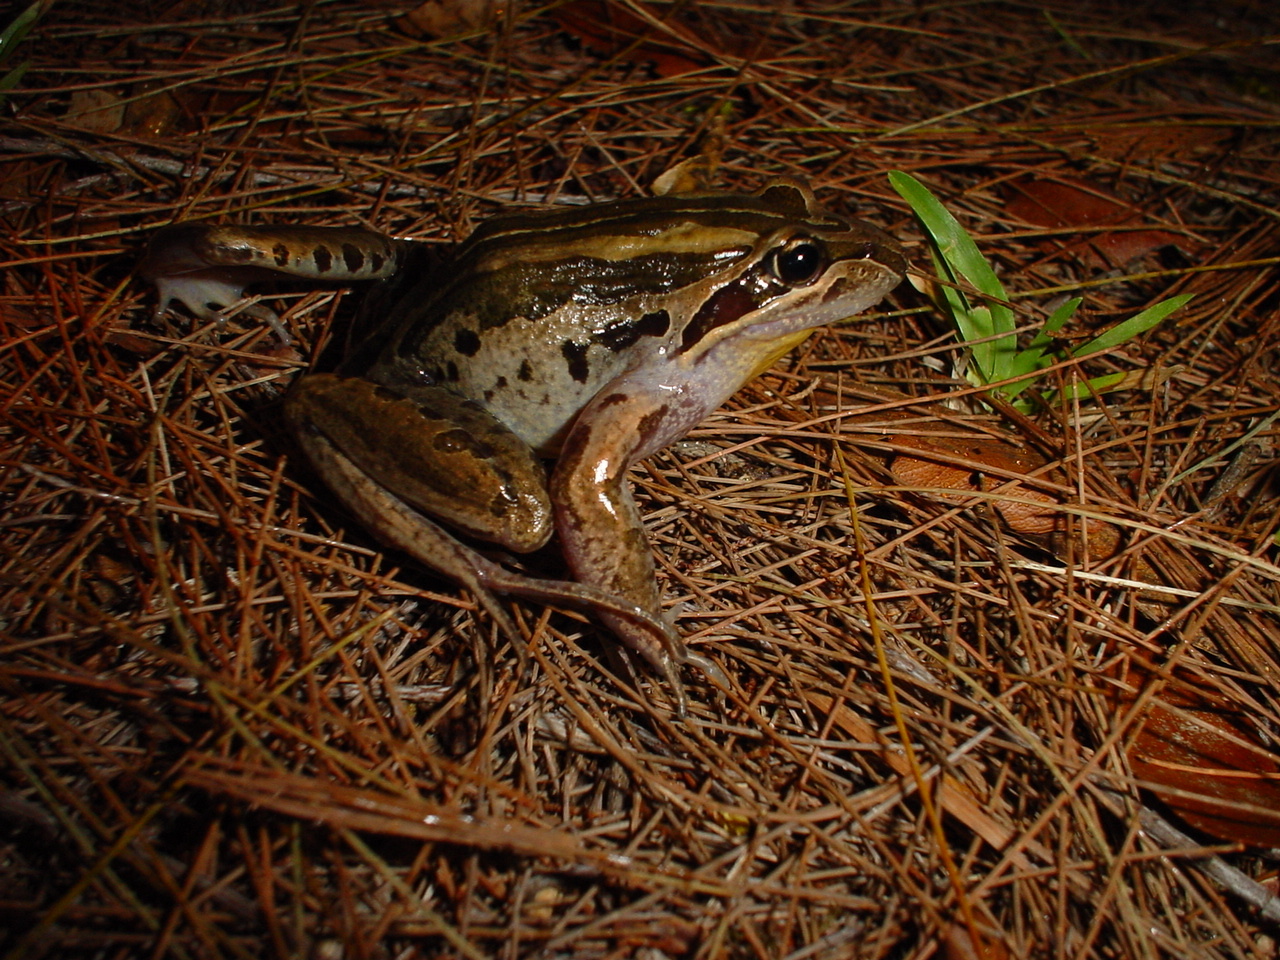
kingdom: Animalia
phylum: Chordata
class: Amphibia
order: Anura
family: Limnodynastidae
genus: Limnodynastes
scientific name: Limnodynastes peronii
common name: Brown frog
